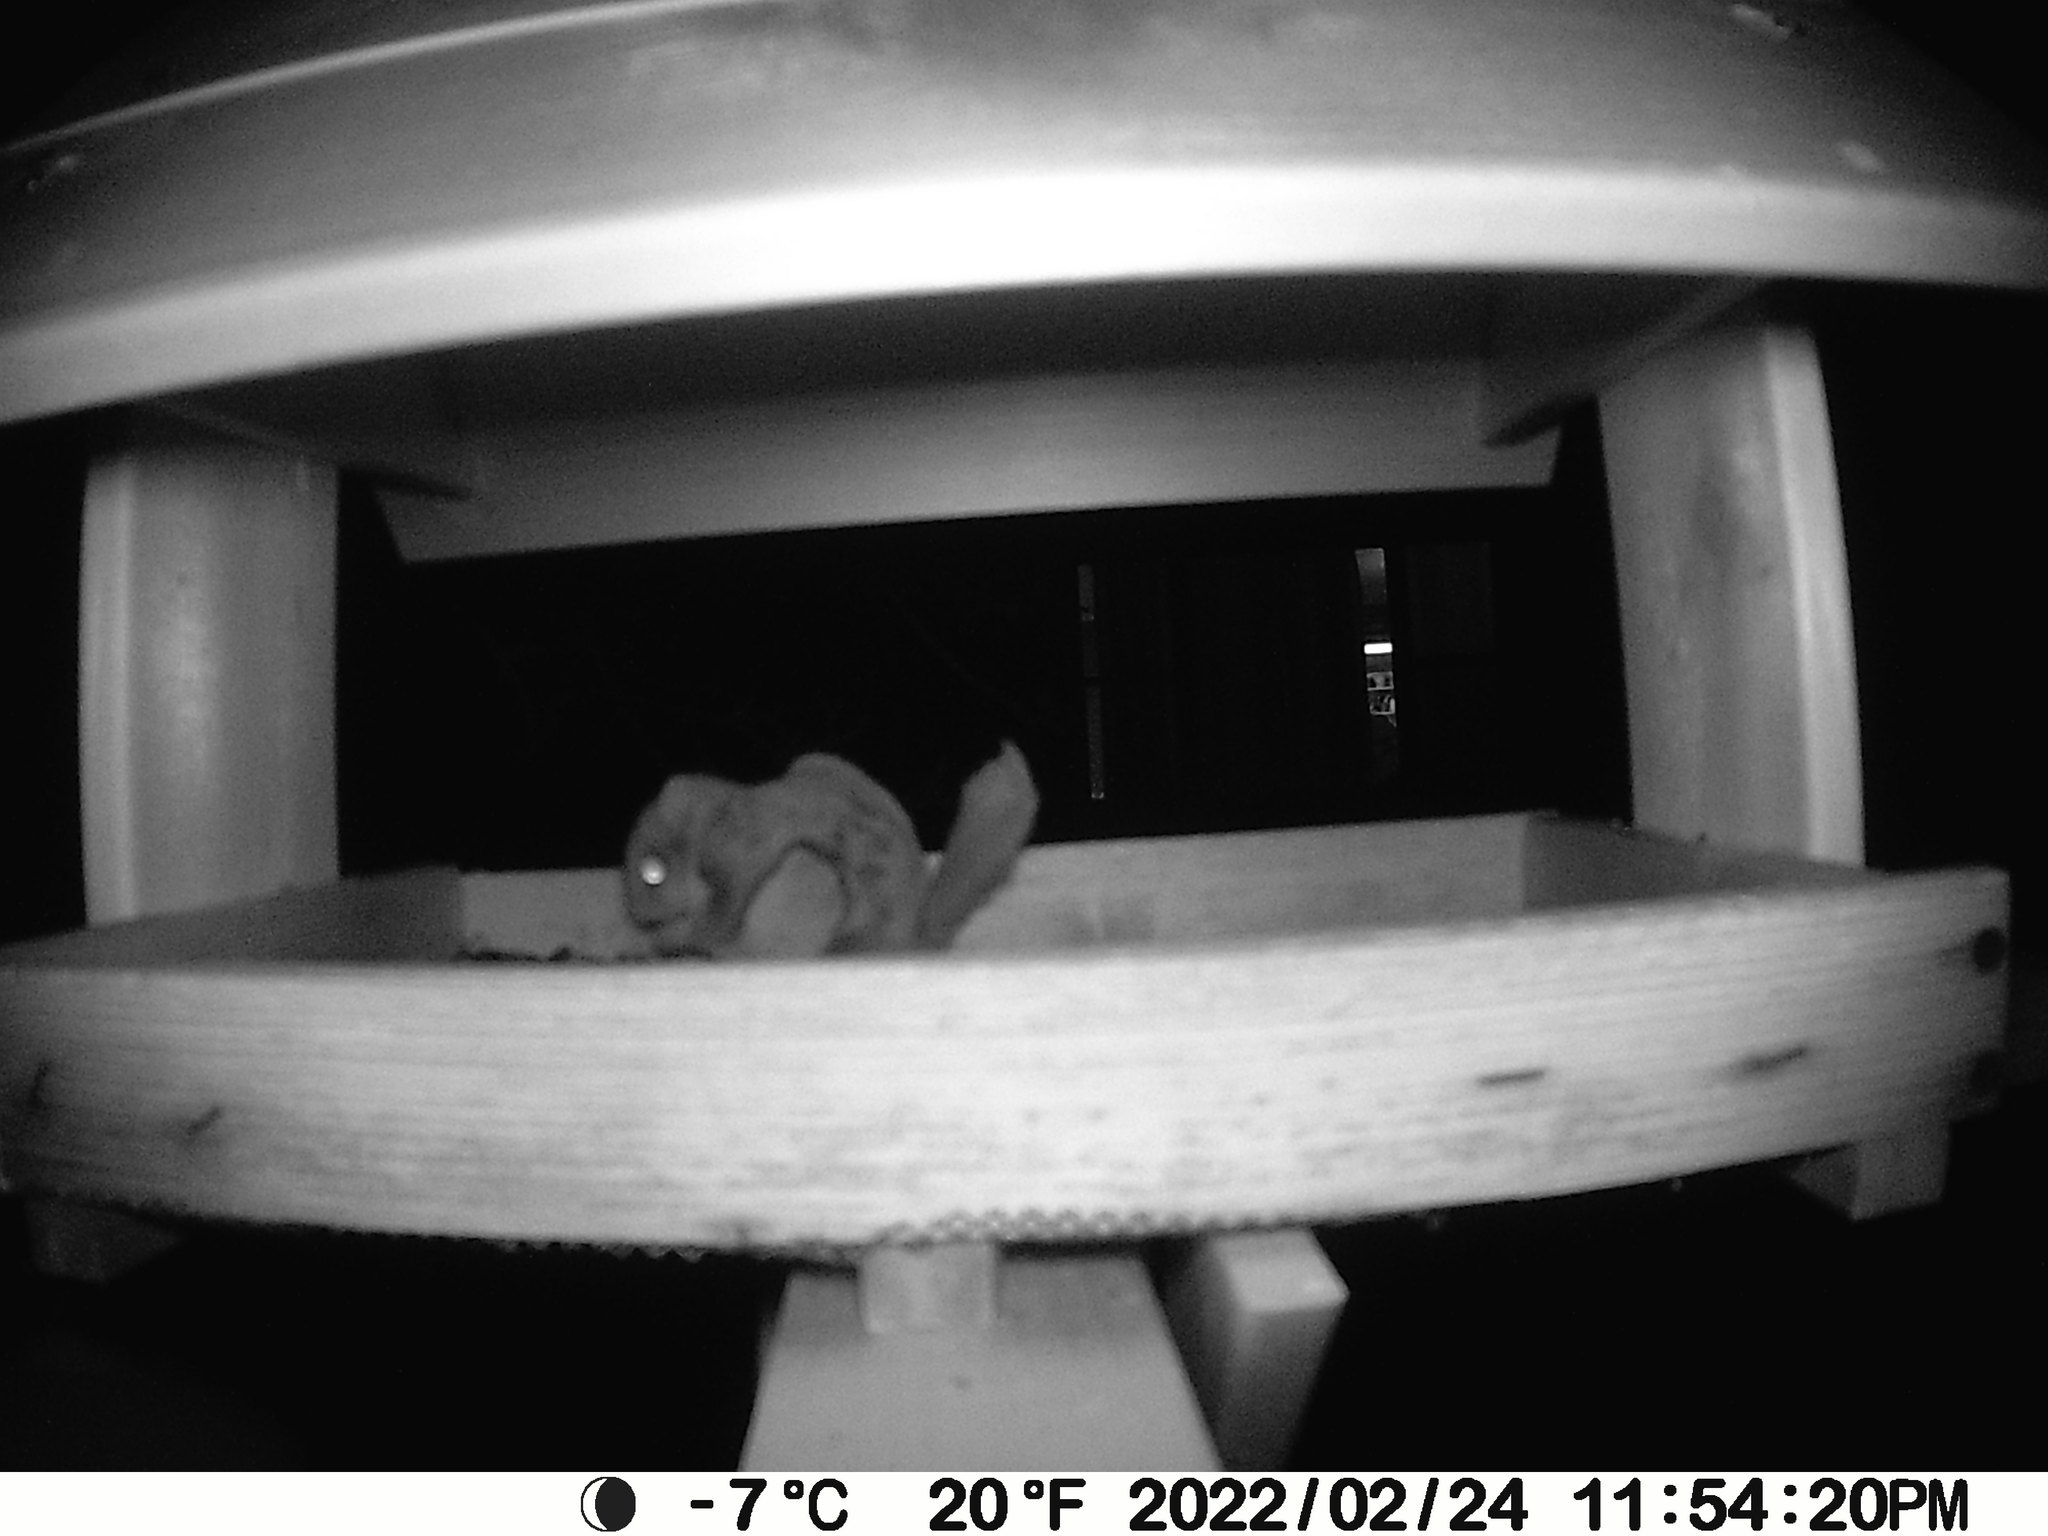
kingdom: Animalia
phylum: Chordata
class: Mammalia
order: Rodentia
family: Sciuridae
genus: Glaucomys
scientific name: Glaucomys sabrinus
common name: Northern flying squirrel
